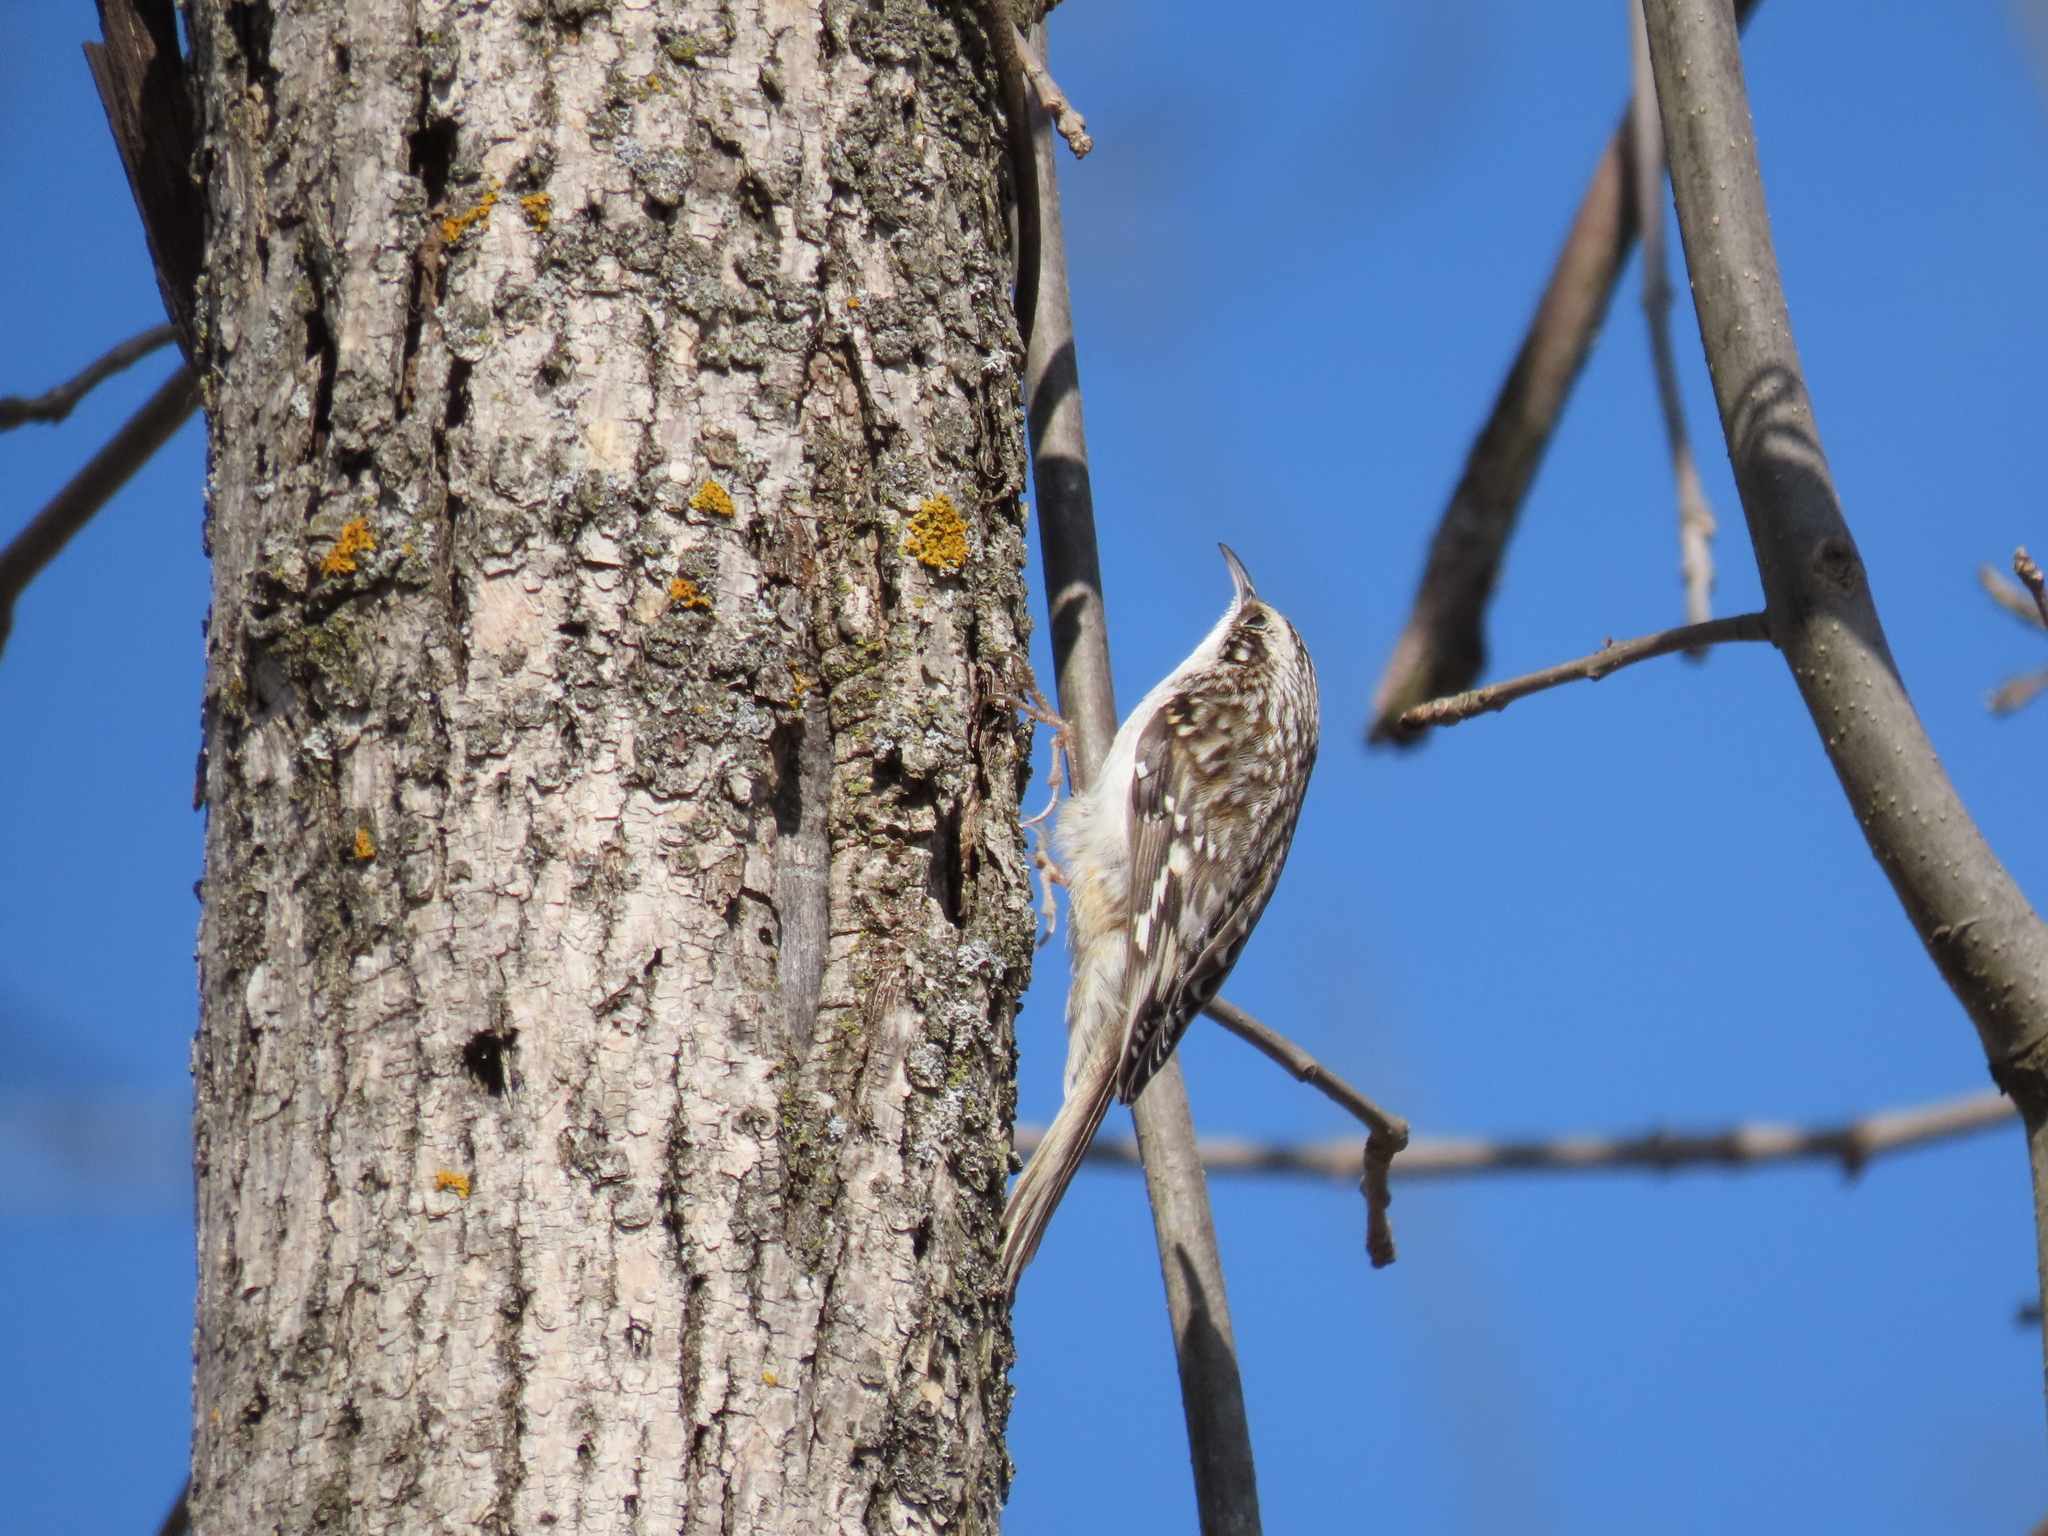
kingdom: Animalia
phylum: Chordata
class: Aves
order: Passeriformes
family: Certhiidae
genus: Certhia
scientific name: Certhia americana
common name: Brown creeper
